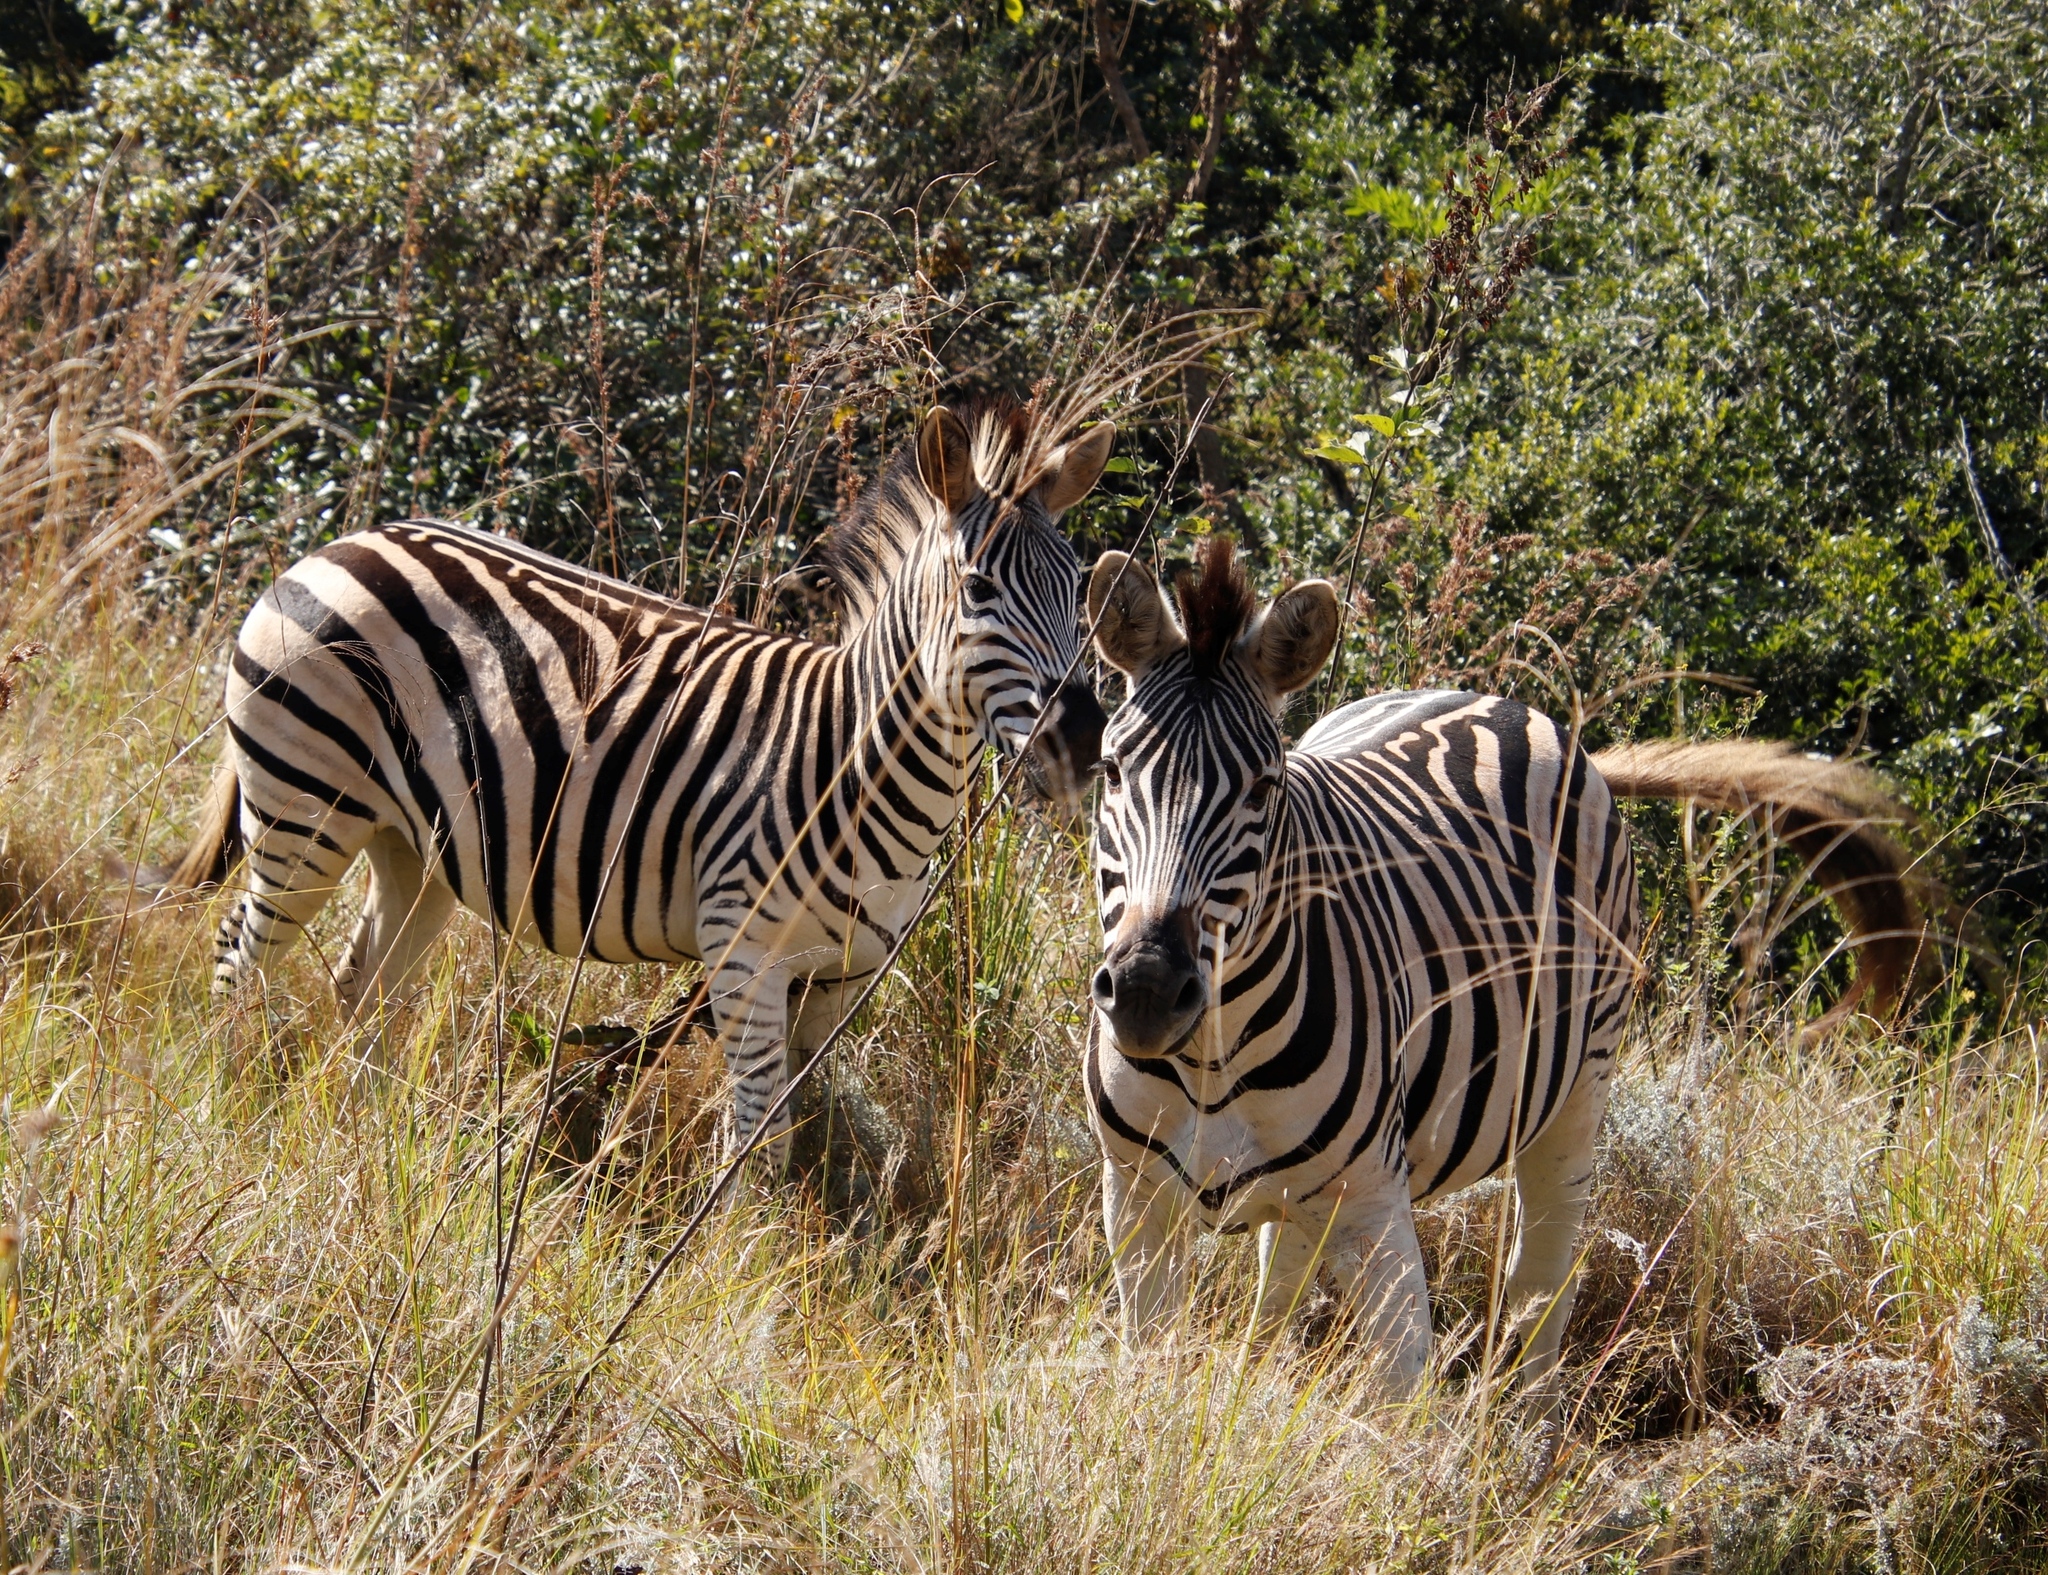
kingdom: Animalia
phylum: Chordata
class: Mammalia
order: Perissodactyla
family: Equidae
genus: Equus
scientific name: Equus quagga
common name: Plains zebra
